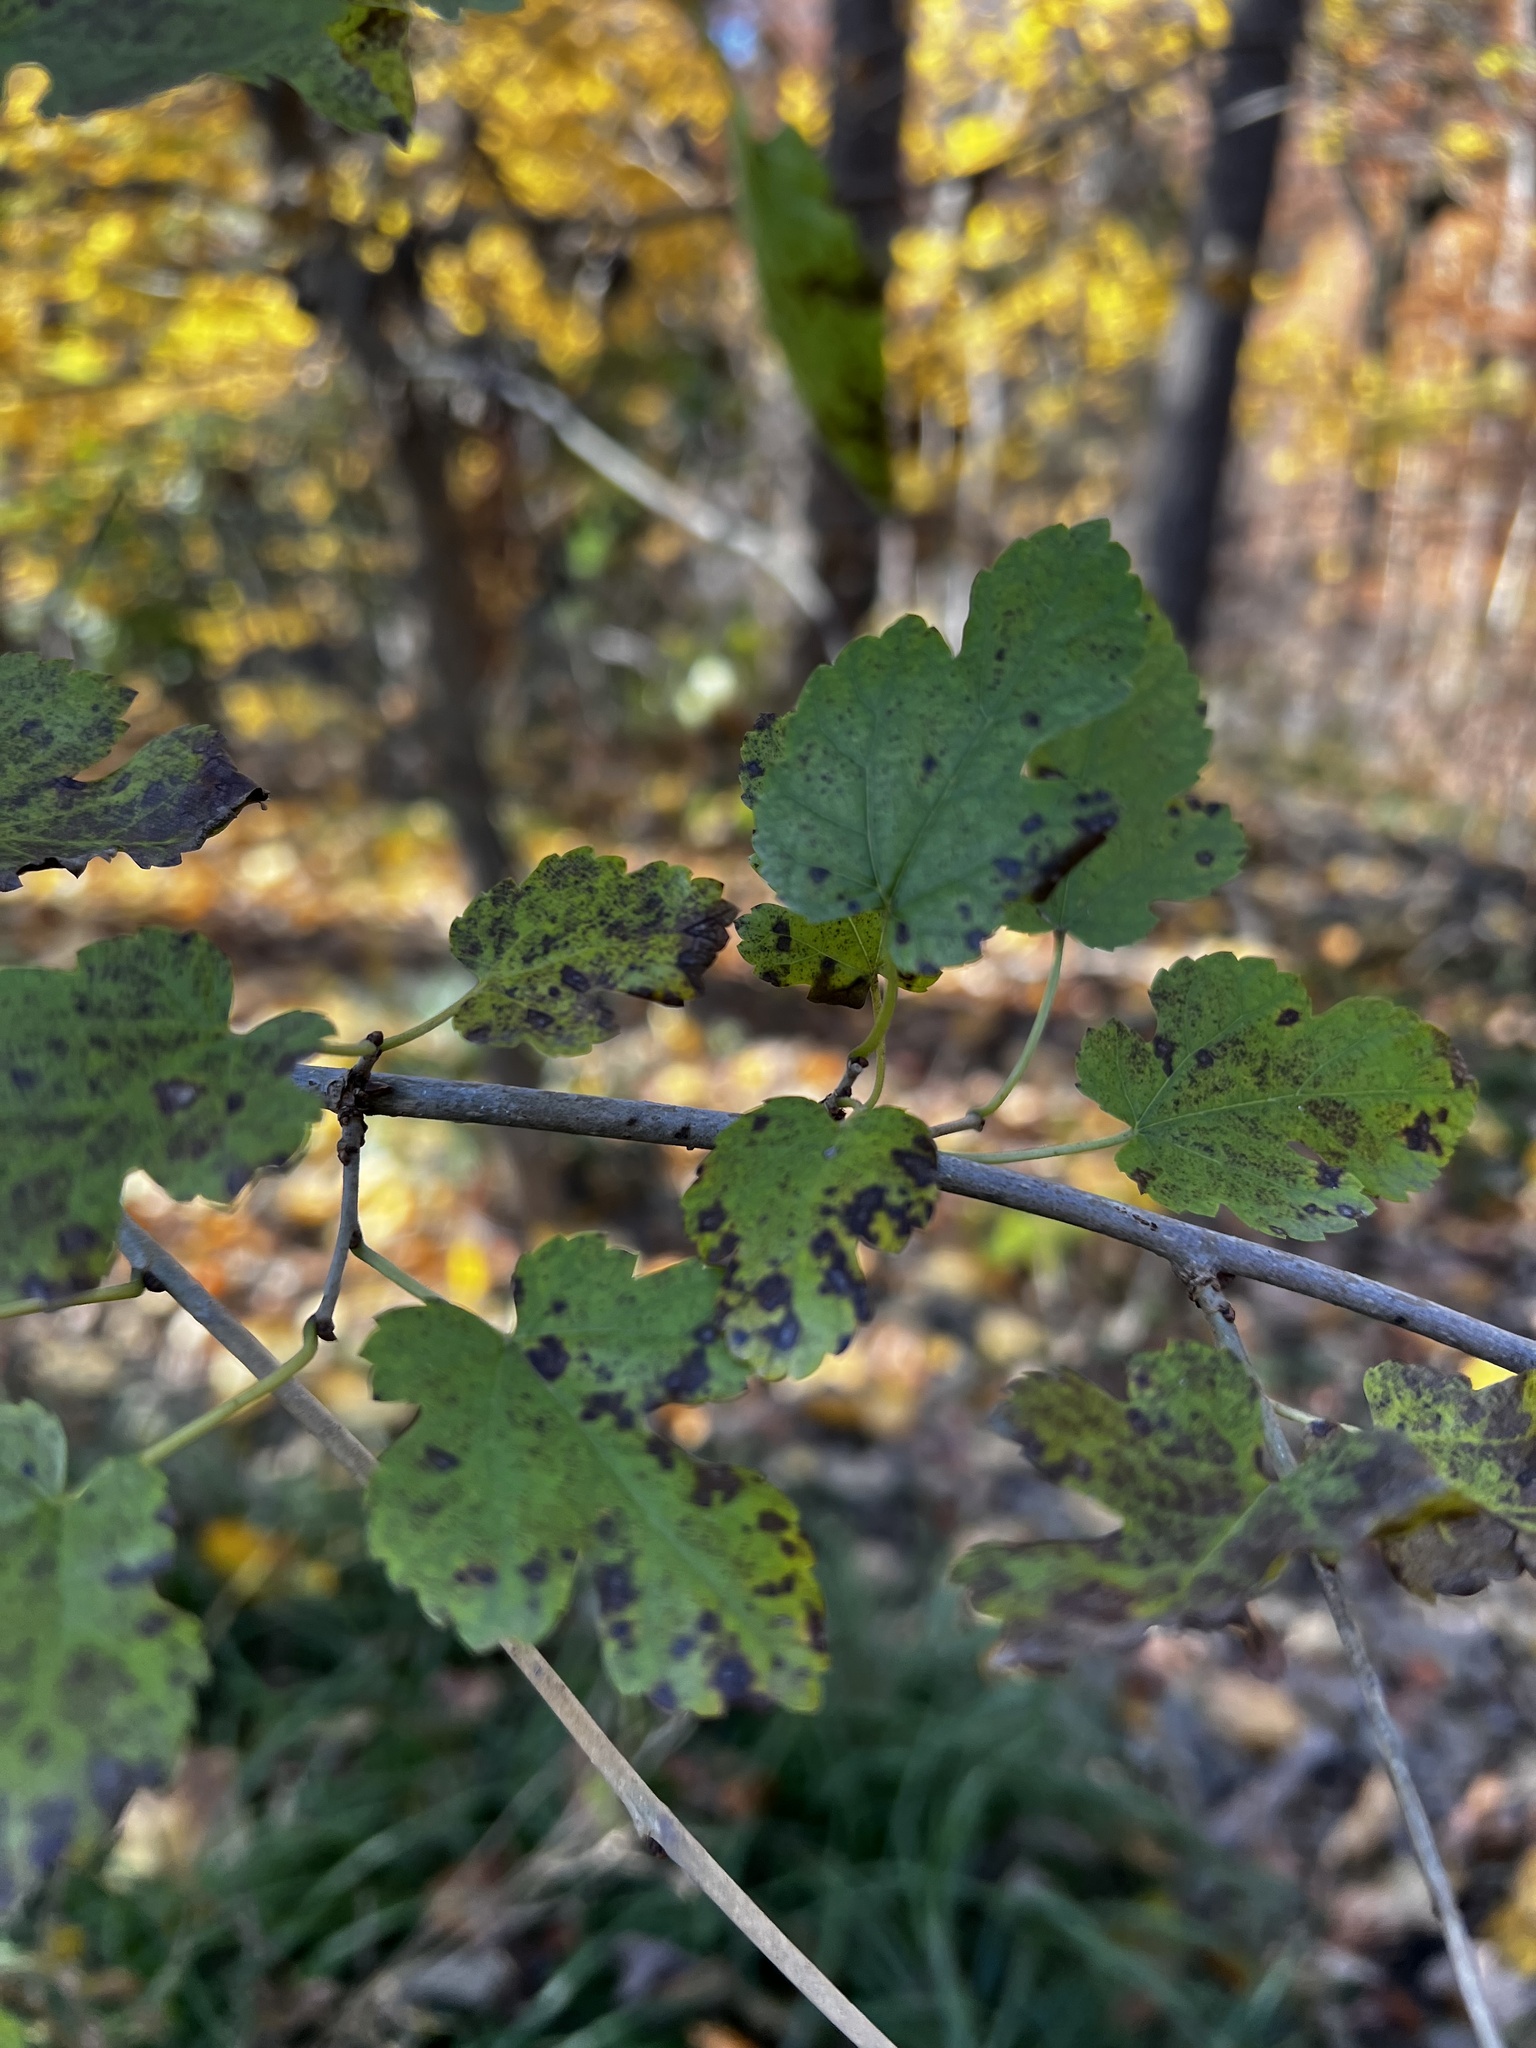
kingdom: Plantae
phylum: Tracheophyta
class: Magnoliopsida
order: Rosales
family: Moraceae
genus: Morus
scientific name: Morus alba
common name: White mulberry
